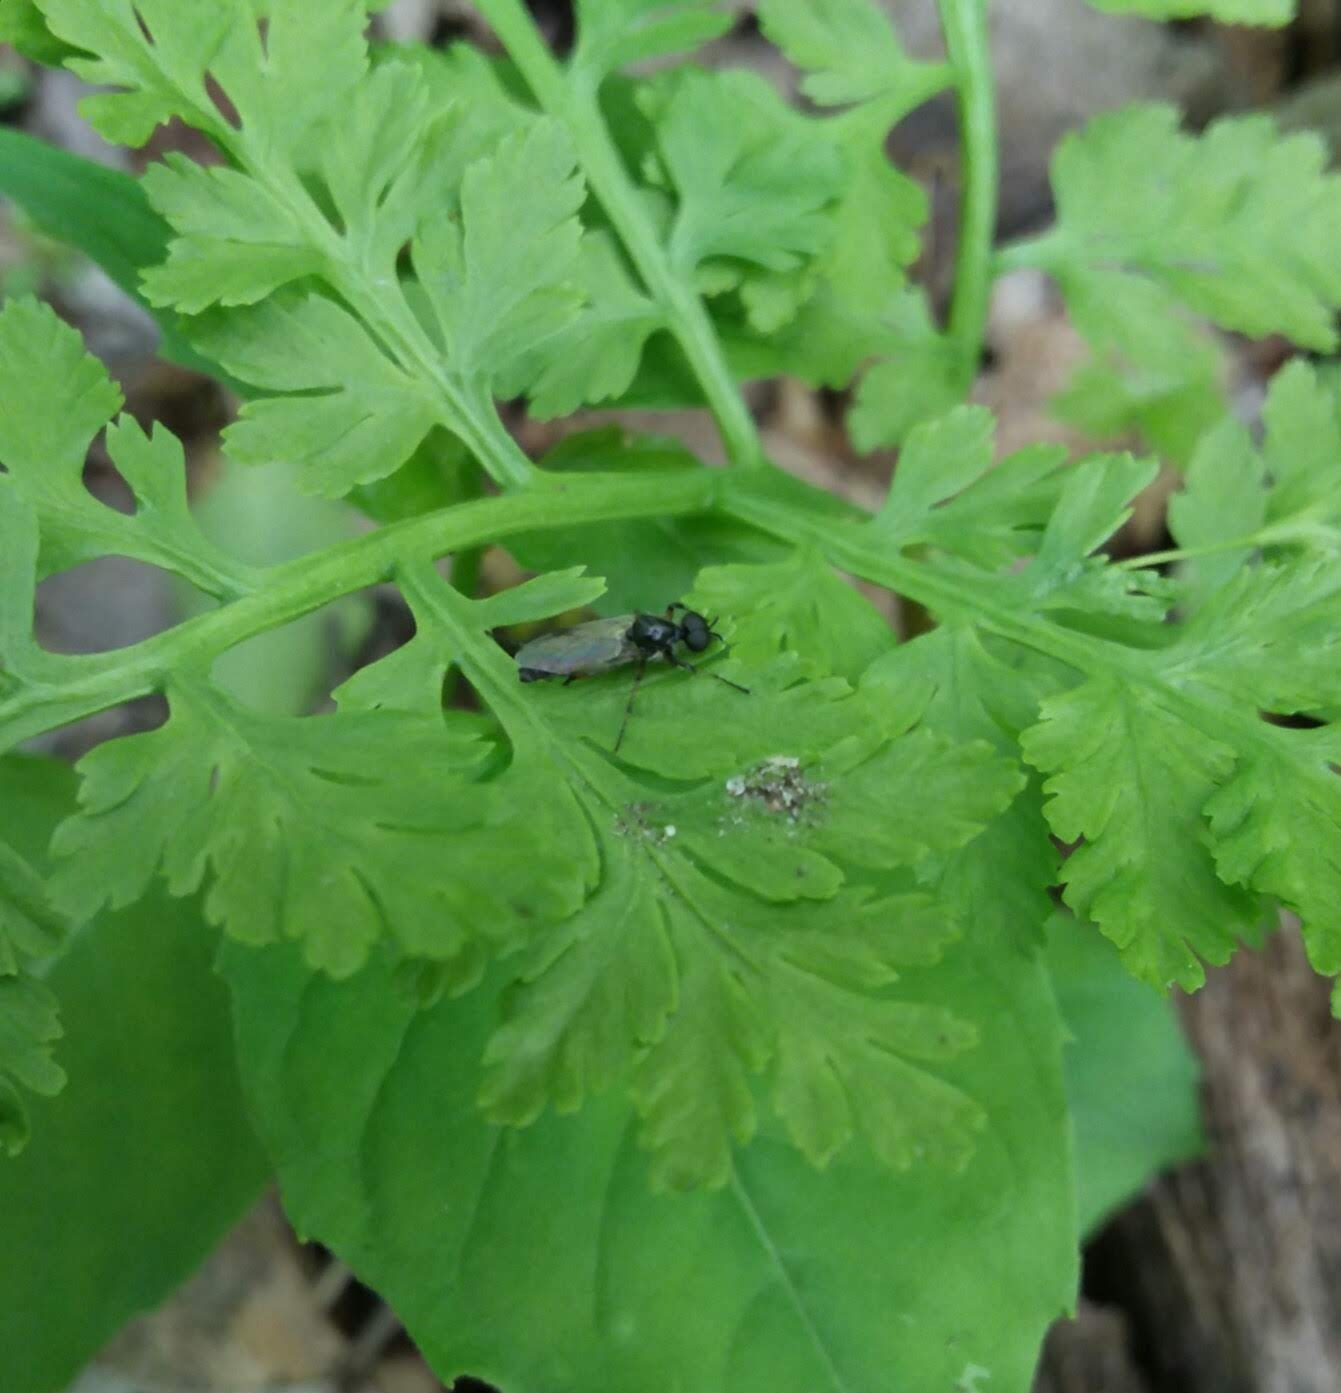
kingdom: Animalia
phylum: Arthropoda
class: Insecta
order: Diptera
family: Bibionidae
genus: Bibio
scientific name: Bibio
